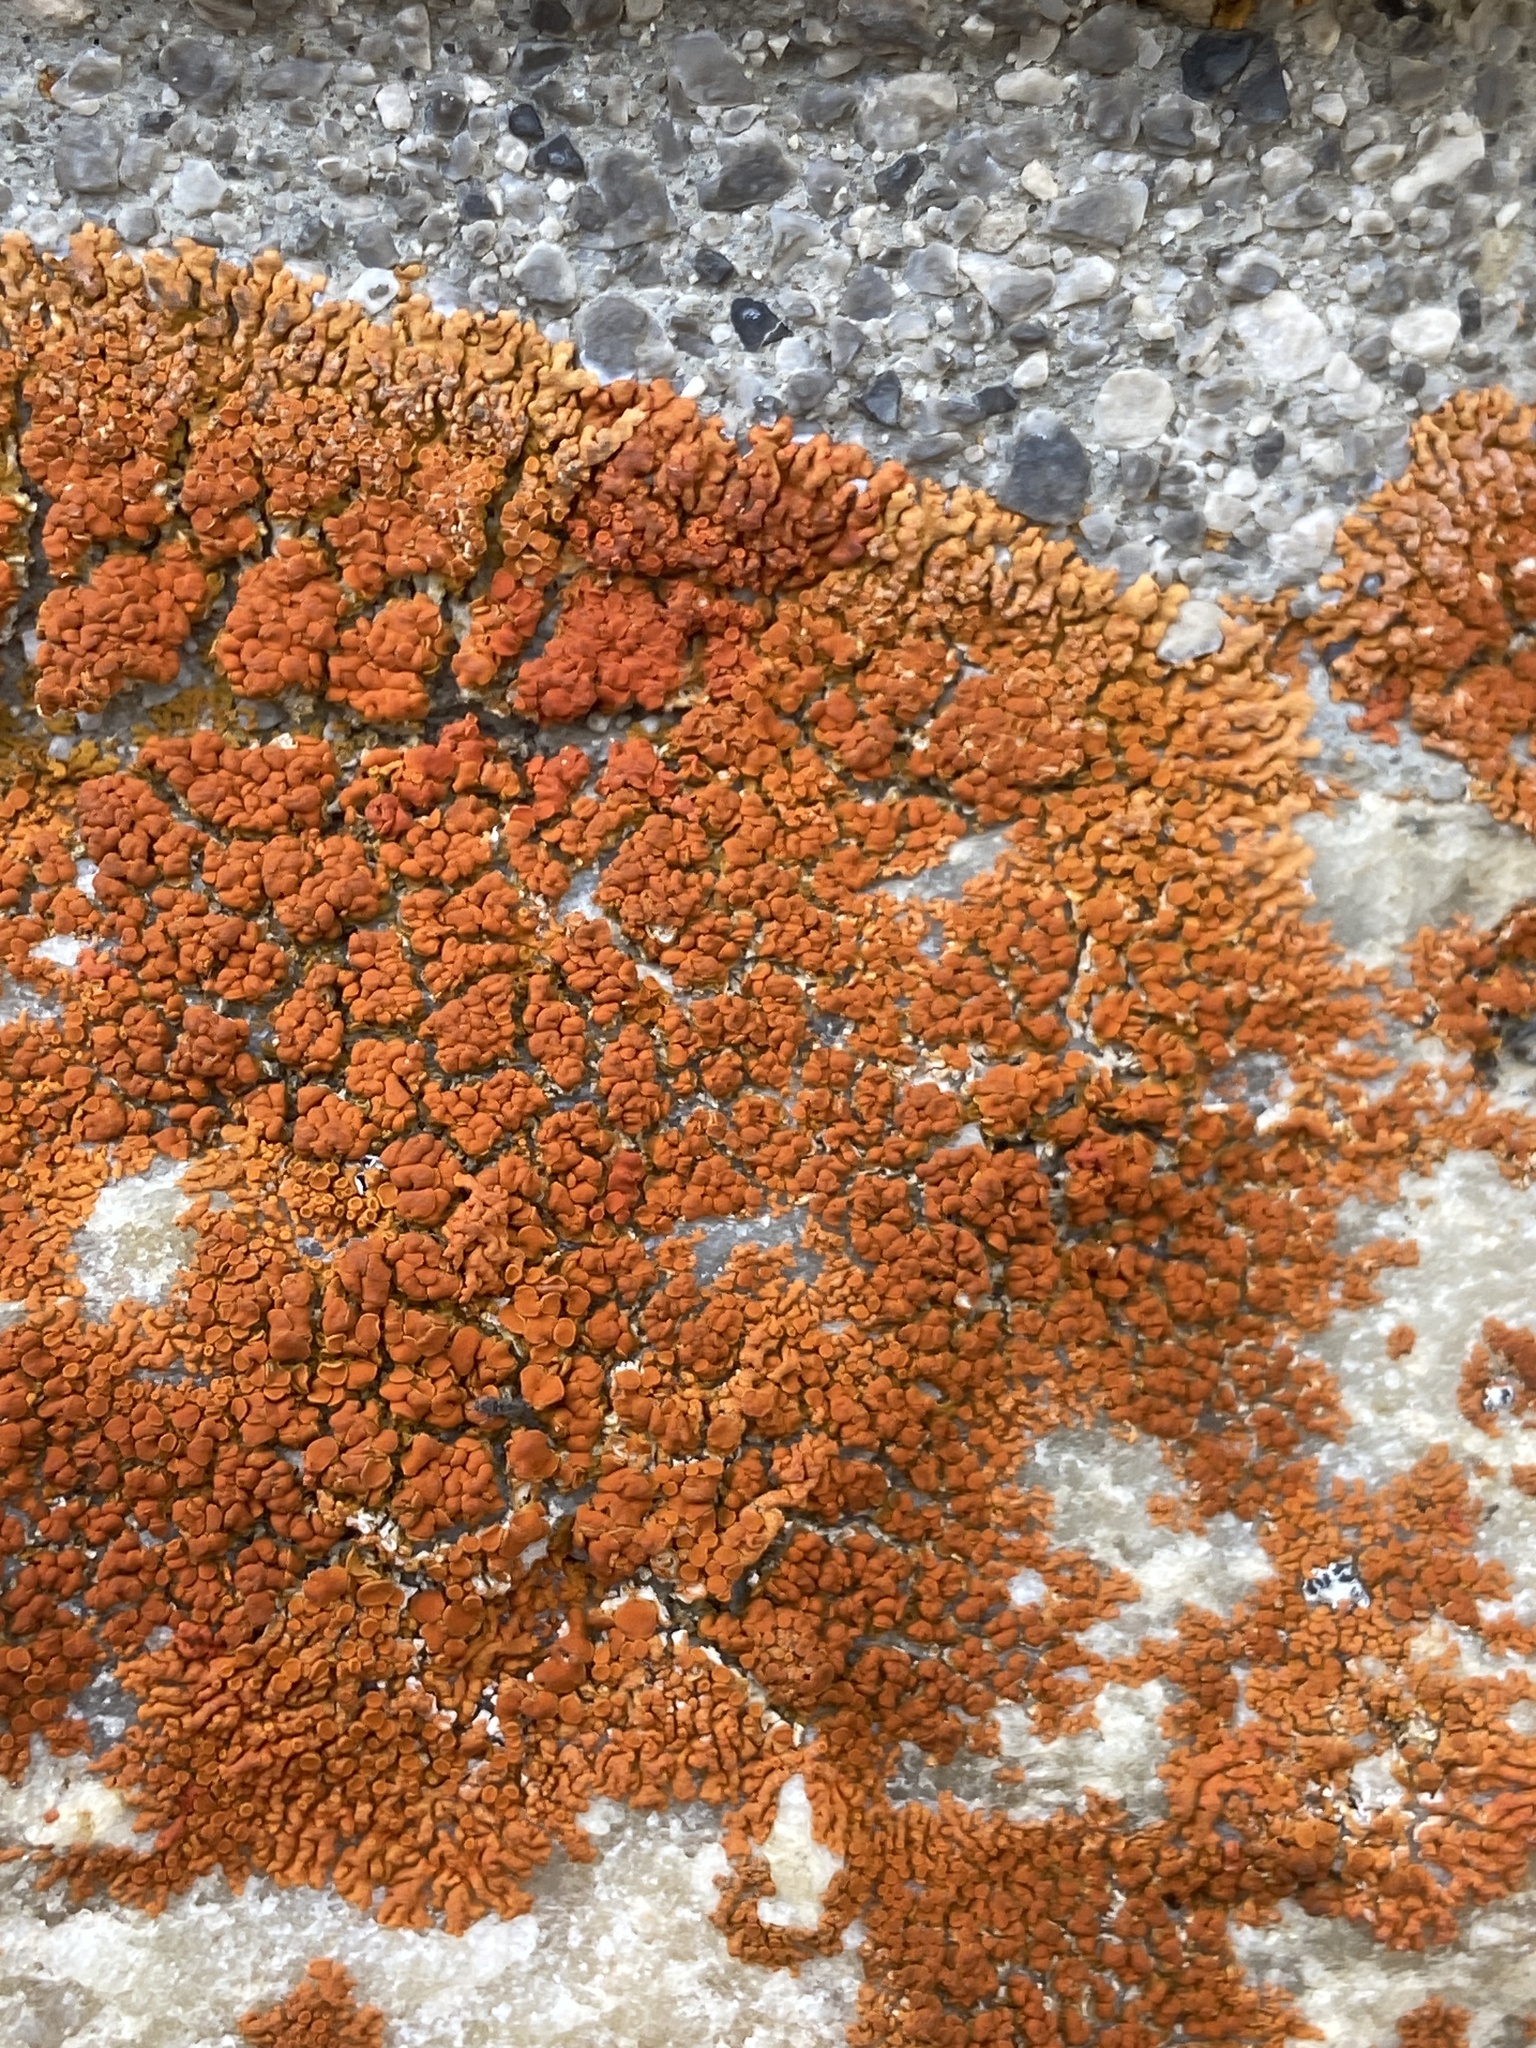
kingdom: Fungi
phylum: Ascomycota
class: Lecanoromycetes
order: Teloschistales
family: Teloschistaceae
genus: Xanthoria
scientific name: Xanthoria elegans
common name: Elegant sunburst lichen
